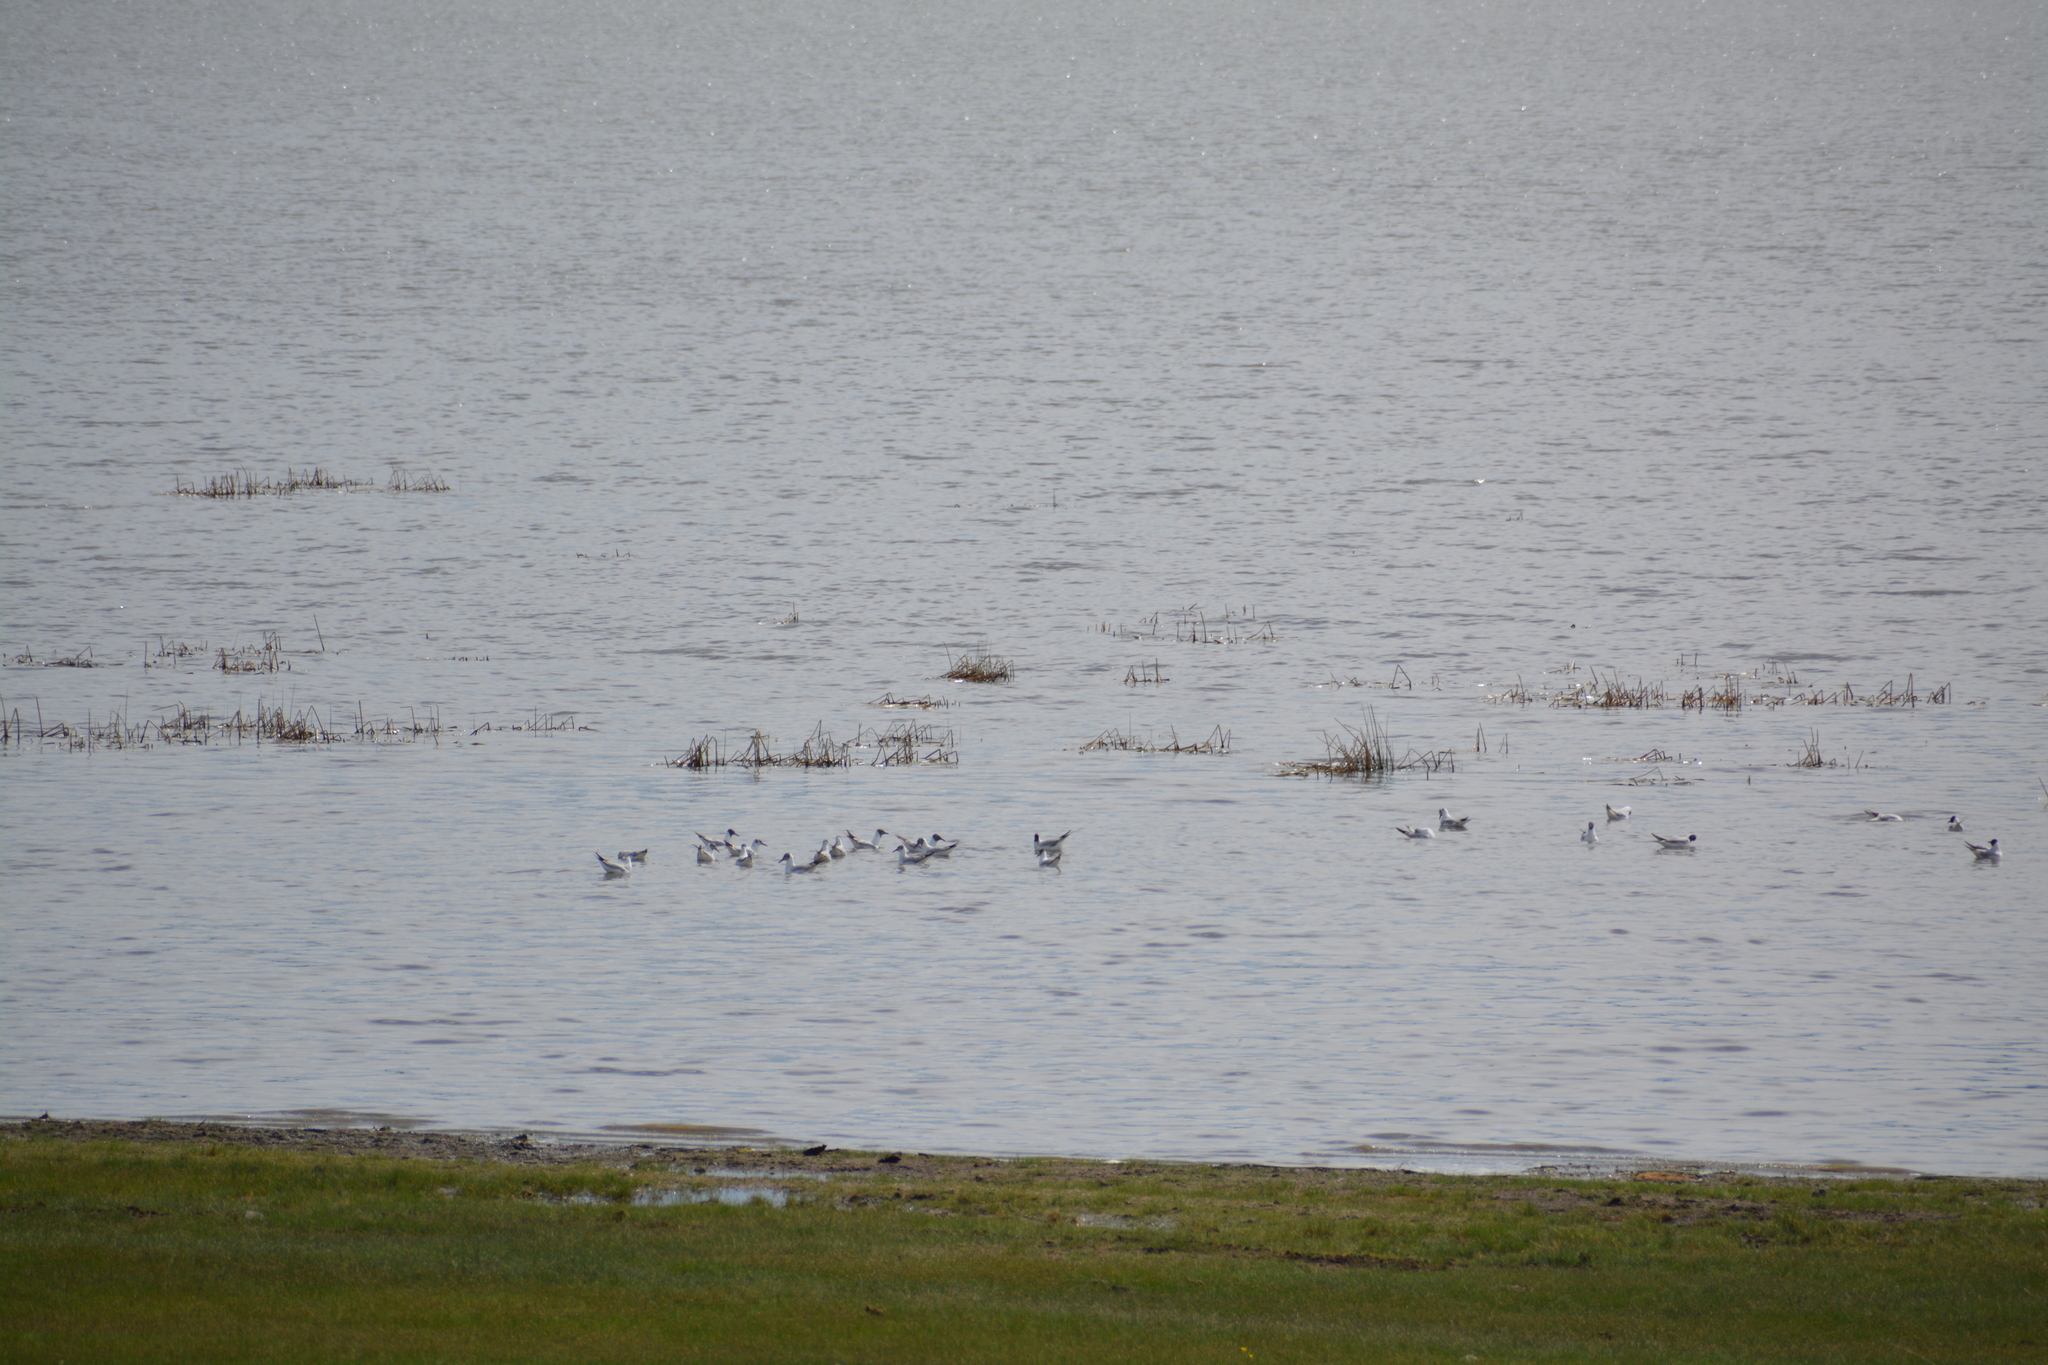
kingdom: Animalia
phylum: Chordata
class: Aves
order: Charadriiformes
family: Laridae
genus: Chroicocephalus
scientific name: Chroicocephalus ridibundus
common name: Black-headed gull
